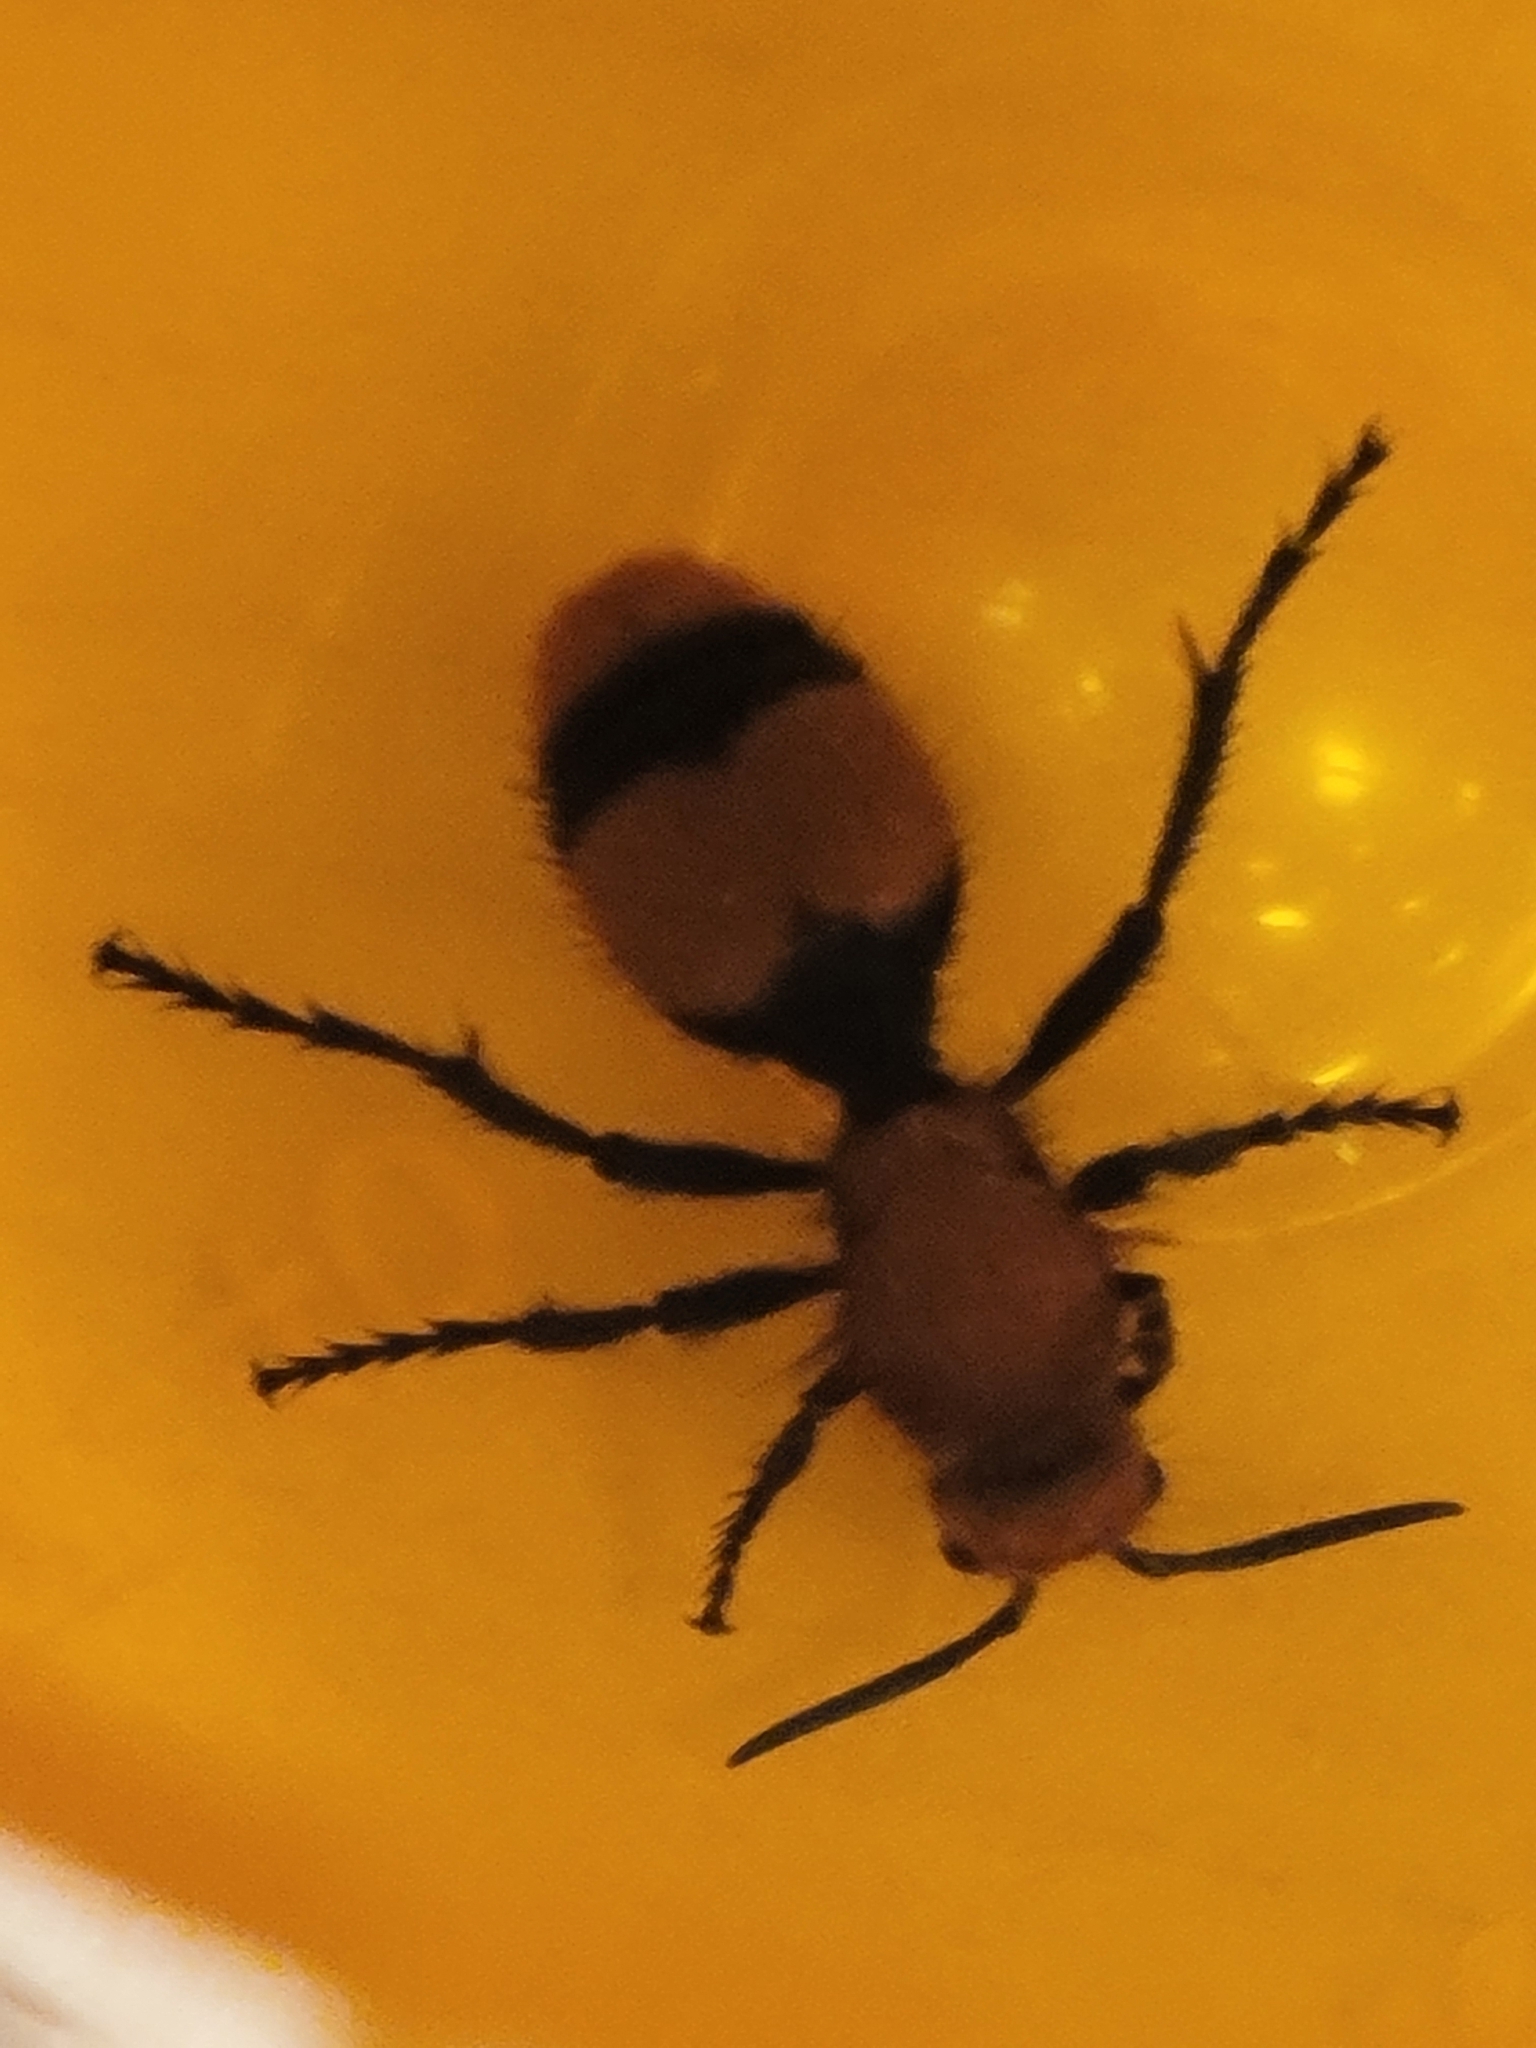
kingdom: Animalia
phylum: Arthropoda
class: Insecta
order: Hymenoptera
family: Mutillidae
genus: Dasymutilla
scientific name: Dasymutilla occidentalis
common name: Common eastern velvet ant
